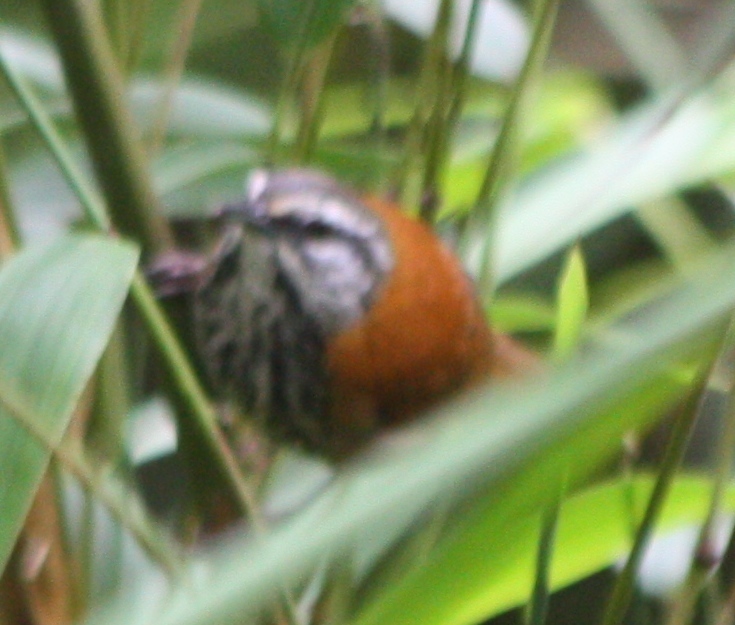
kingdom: Animalia
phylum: Chordata
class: Aves
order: Passeriformes
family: Troglodytidae
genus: Pheugopedius
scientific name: Pheugopedius eisenmanni
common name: Inca wren
